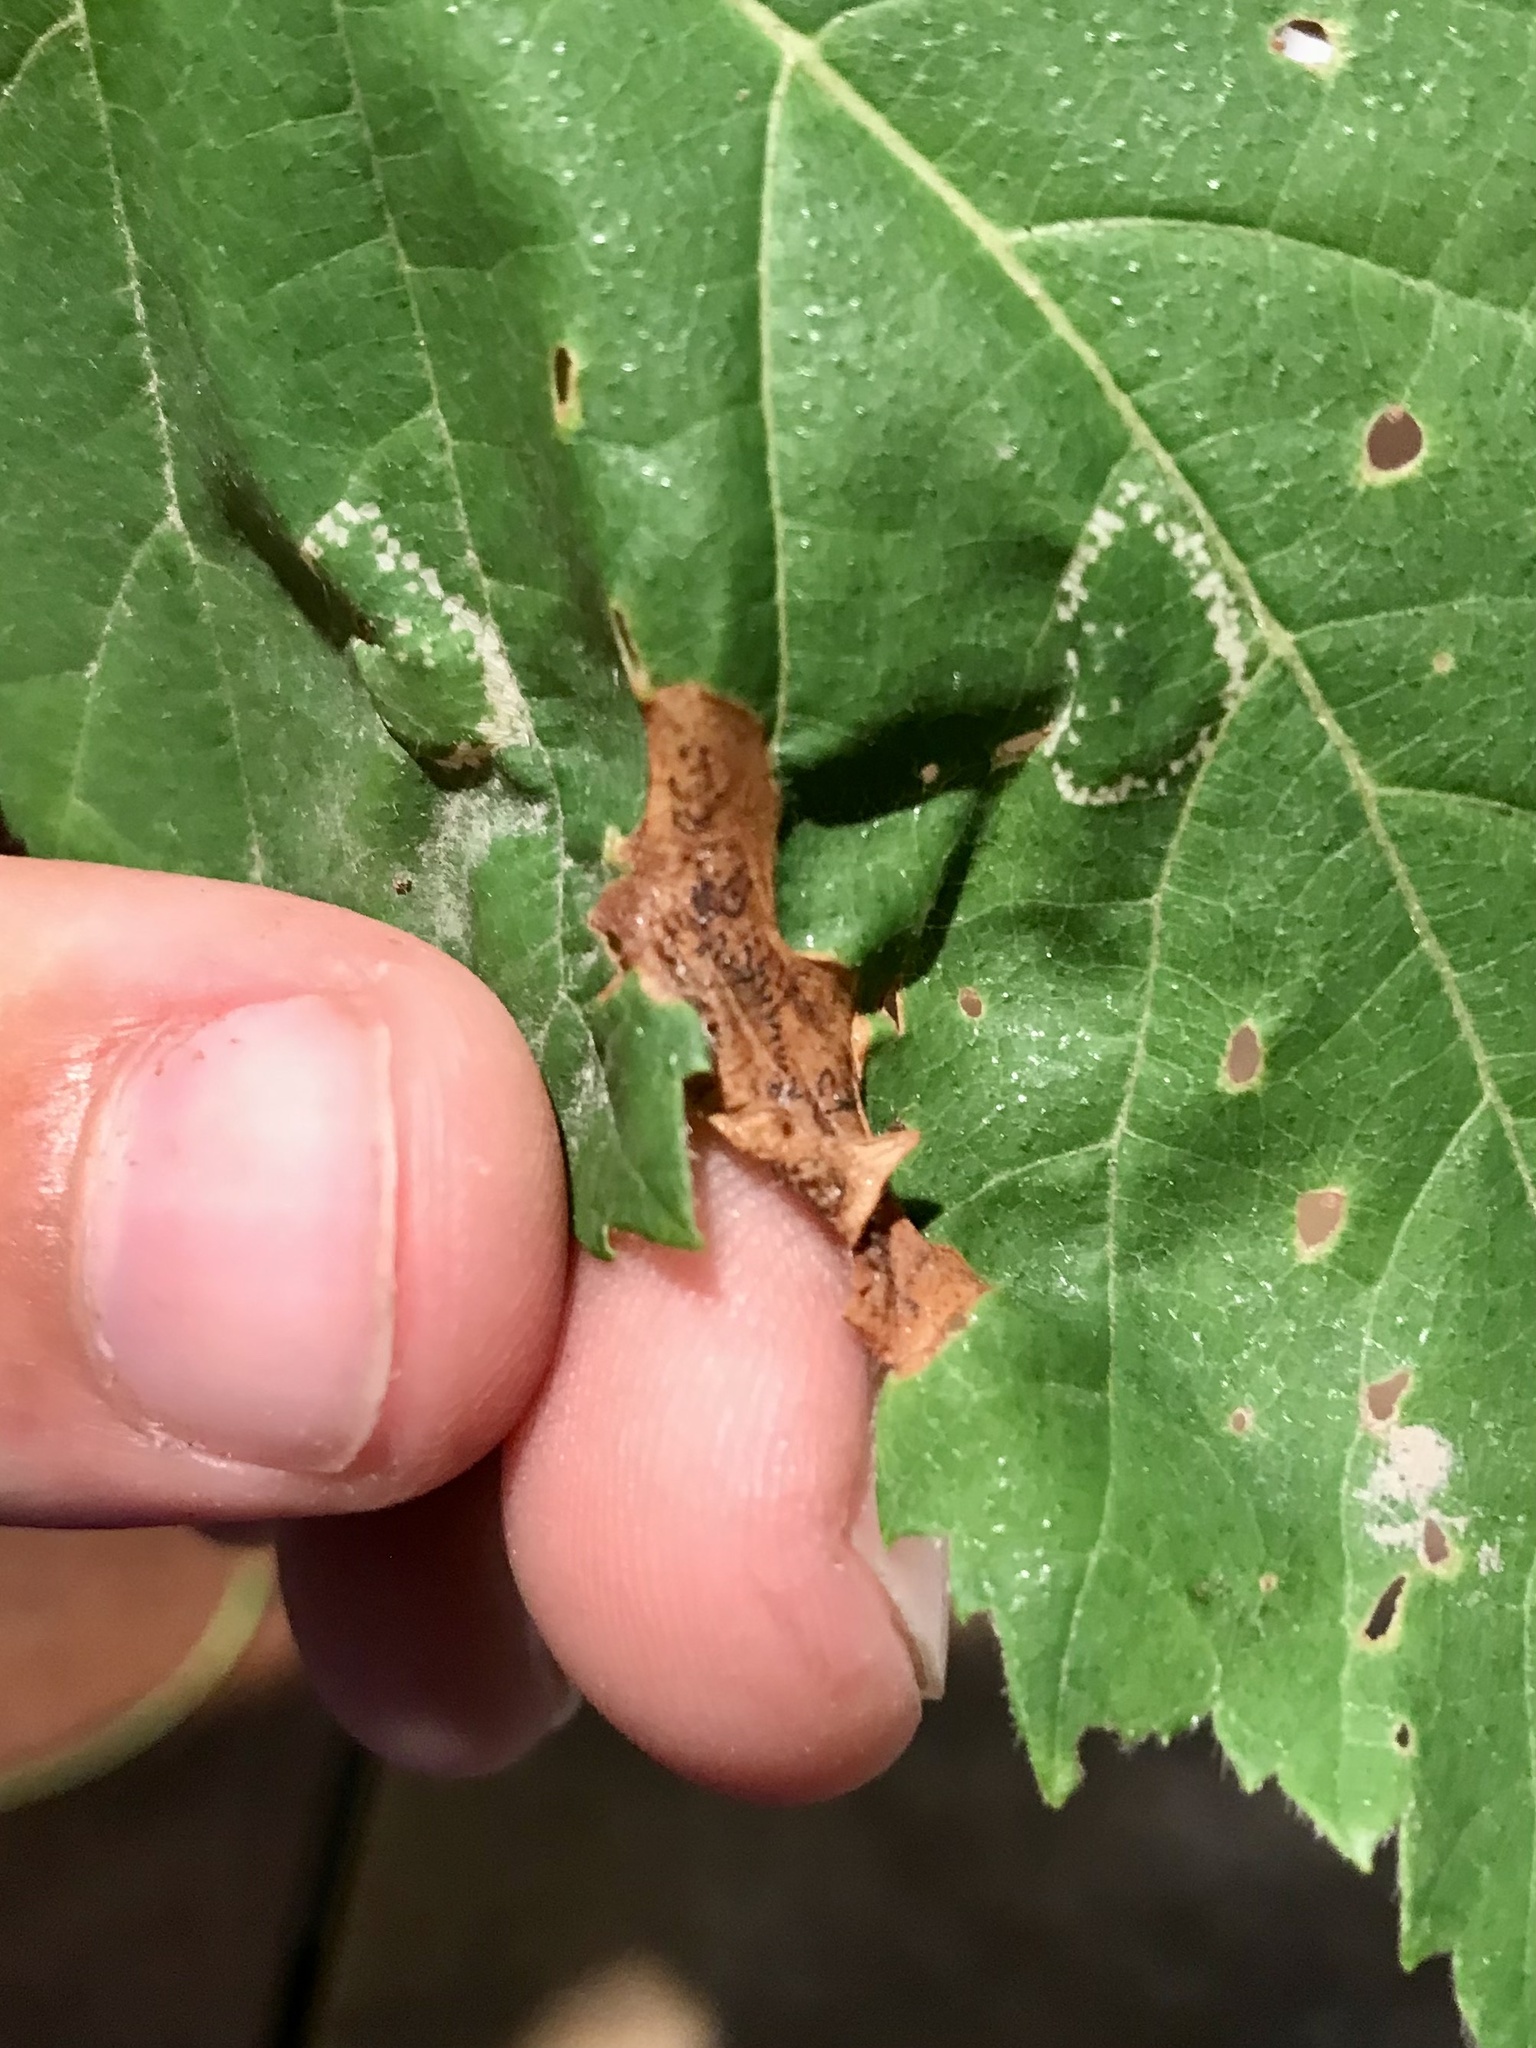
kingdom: Animalia
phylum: Arthropoda
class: Insecta
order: Diptera
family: Agromyzidae
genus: Japanagromyza
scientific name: Japanagromyza viridula
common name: Oak shothole leafminer
